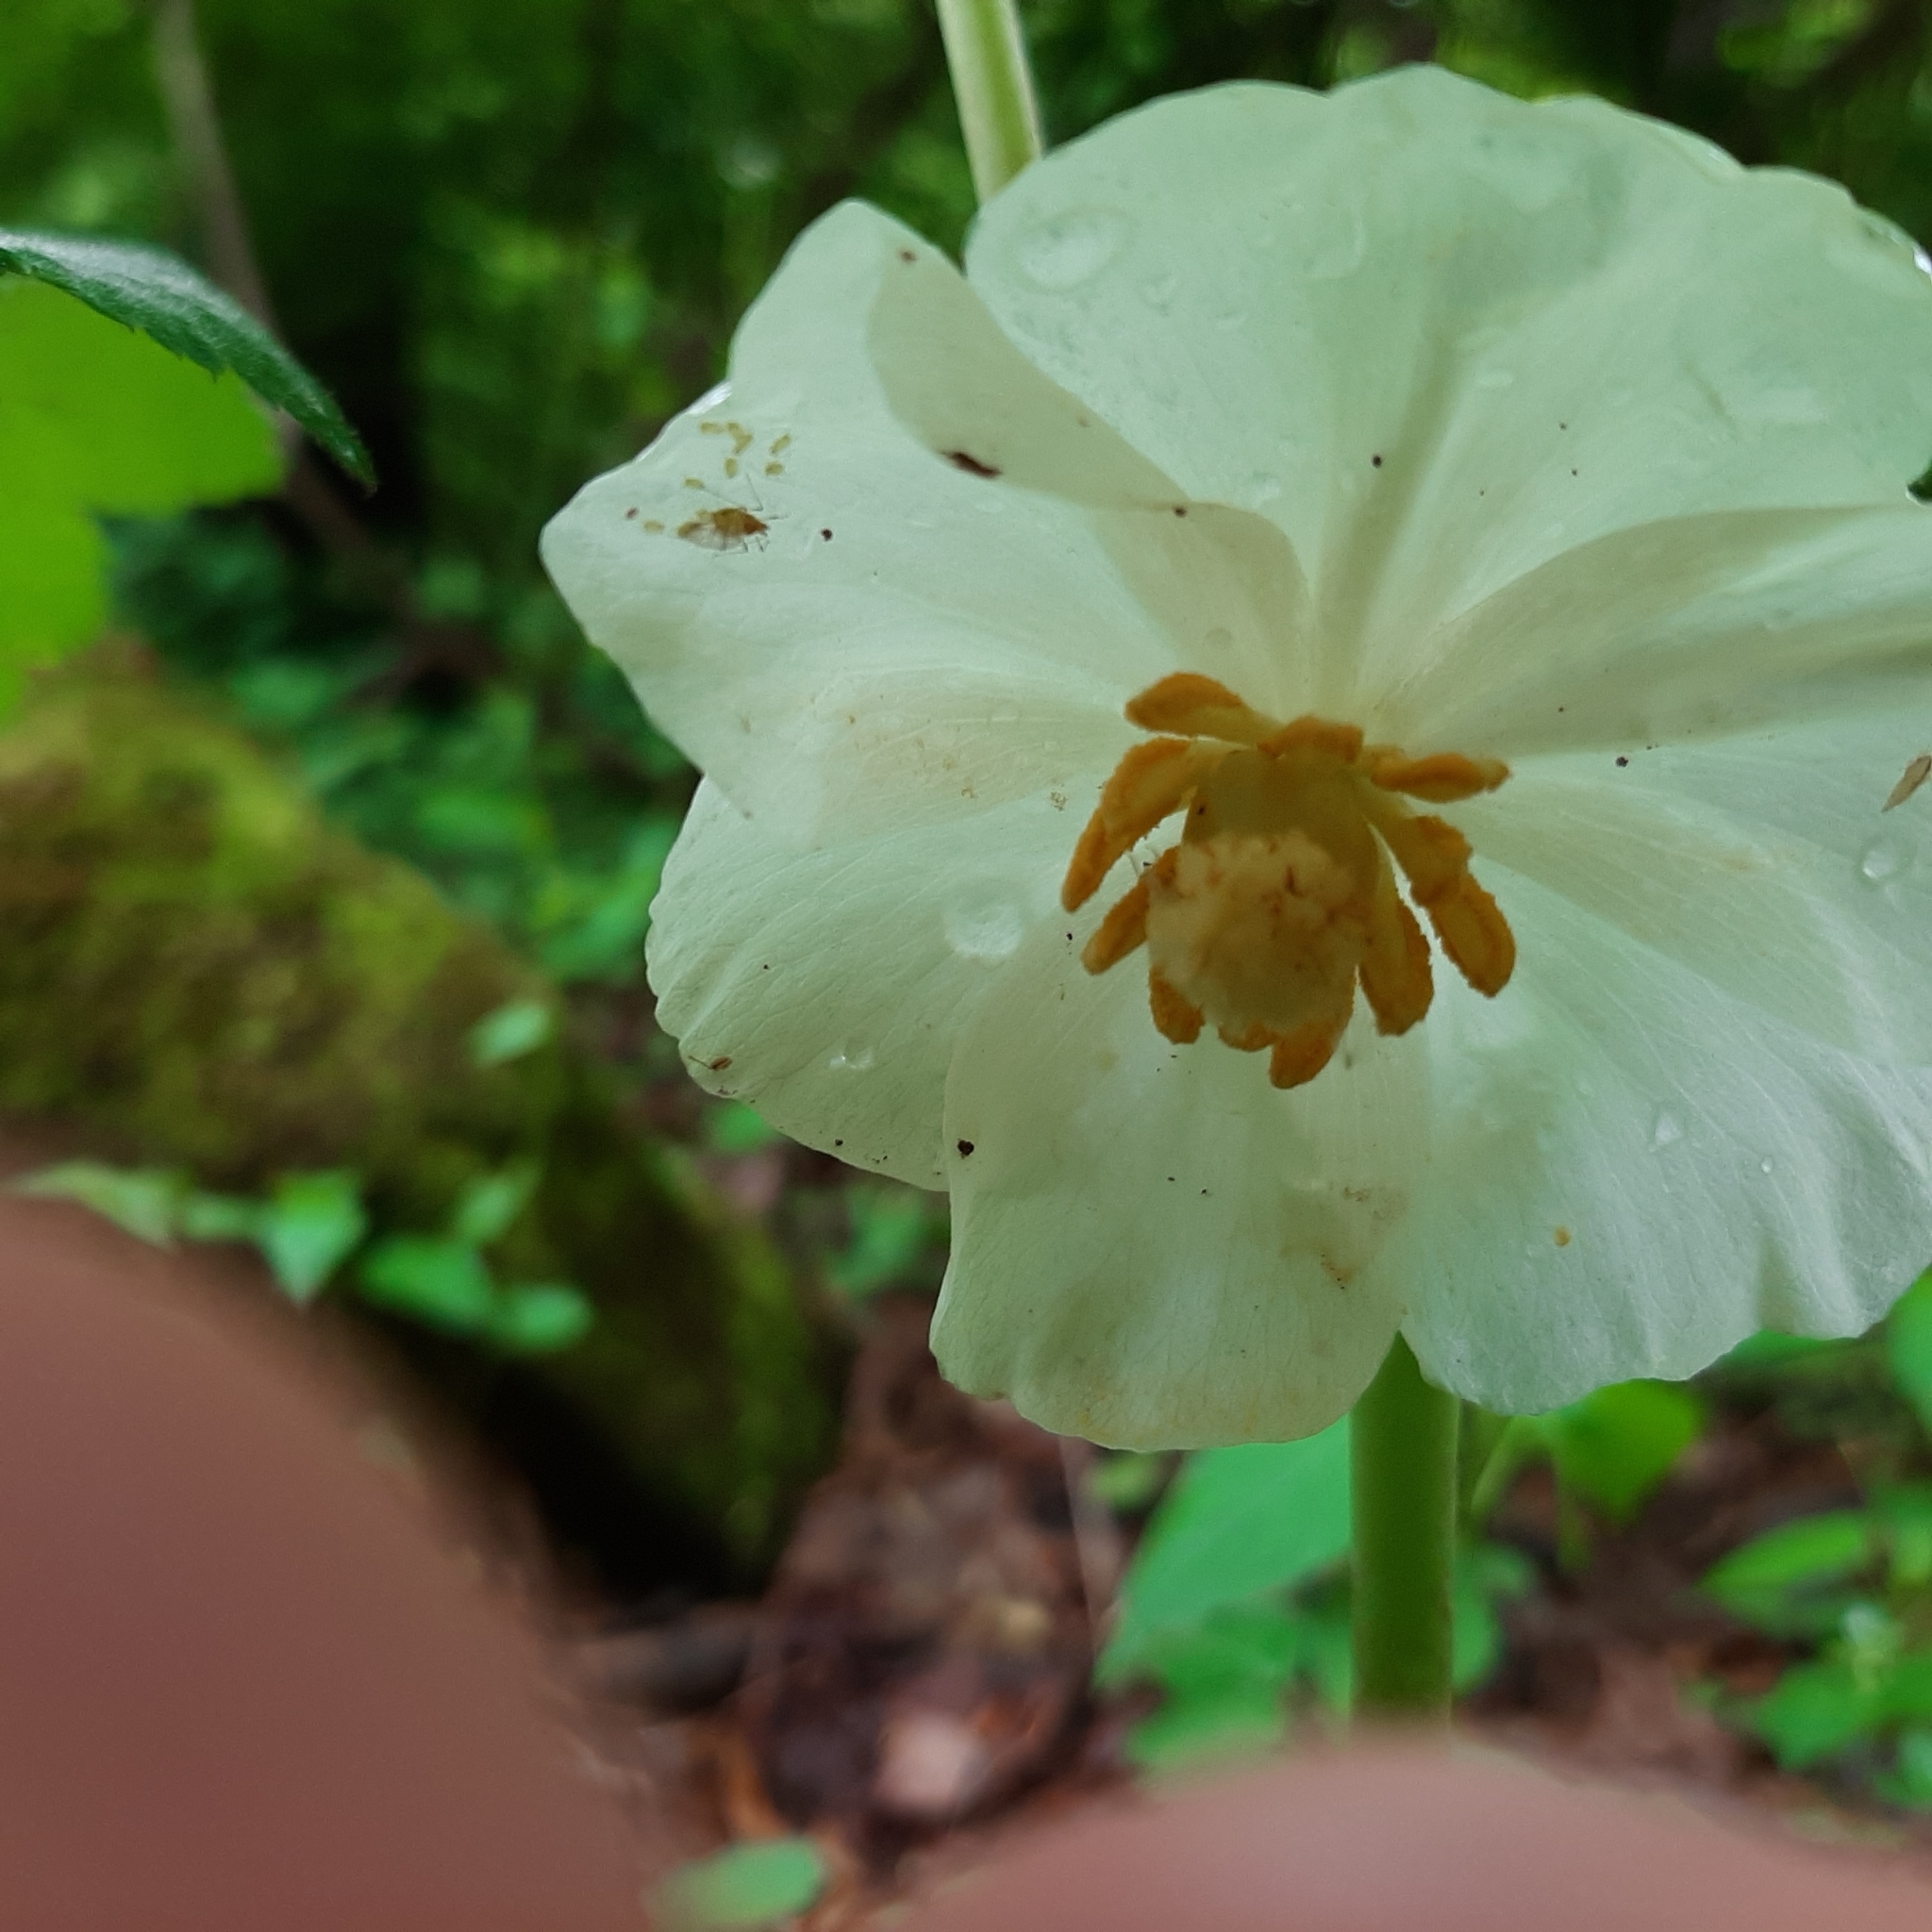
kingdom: Plantae
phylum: Tracheophyta
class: Magnoliopsida
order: Ranunculales
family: Berberidaceae
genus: Podophyllum
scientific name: Podophyllum peltatum
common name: Wild mandrake
